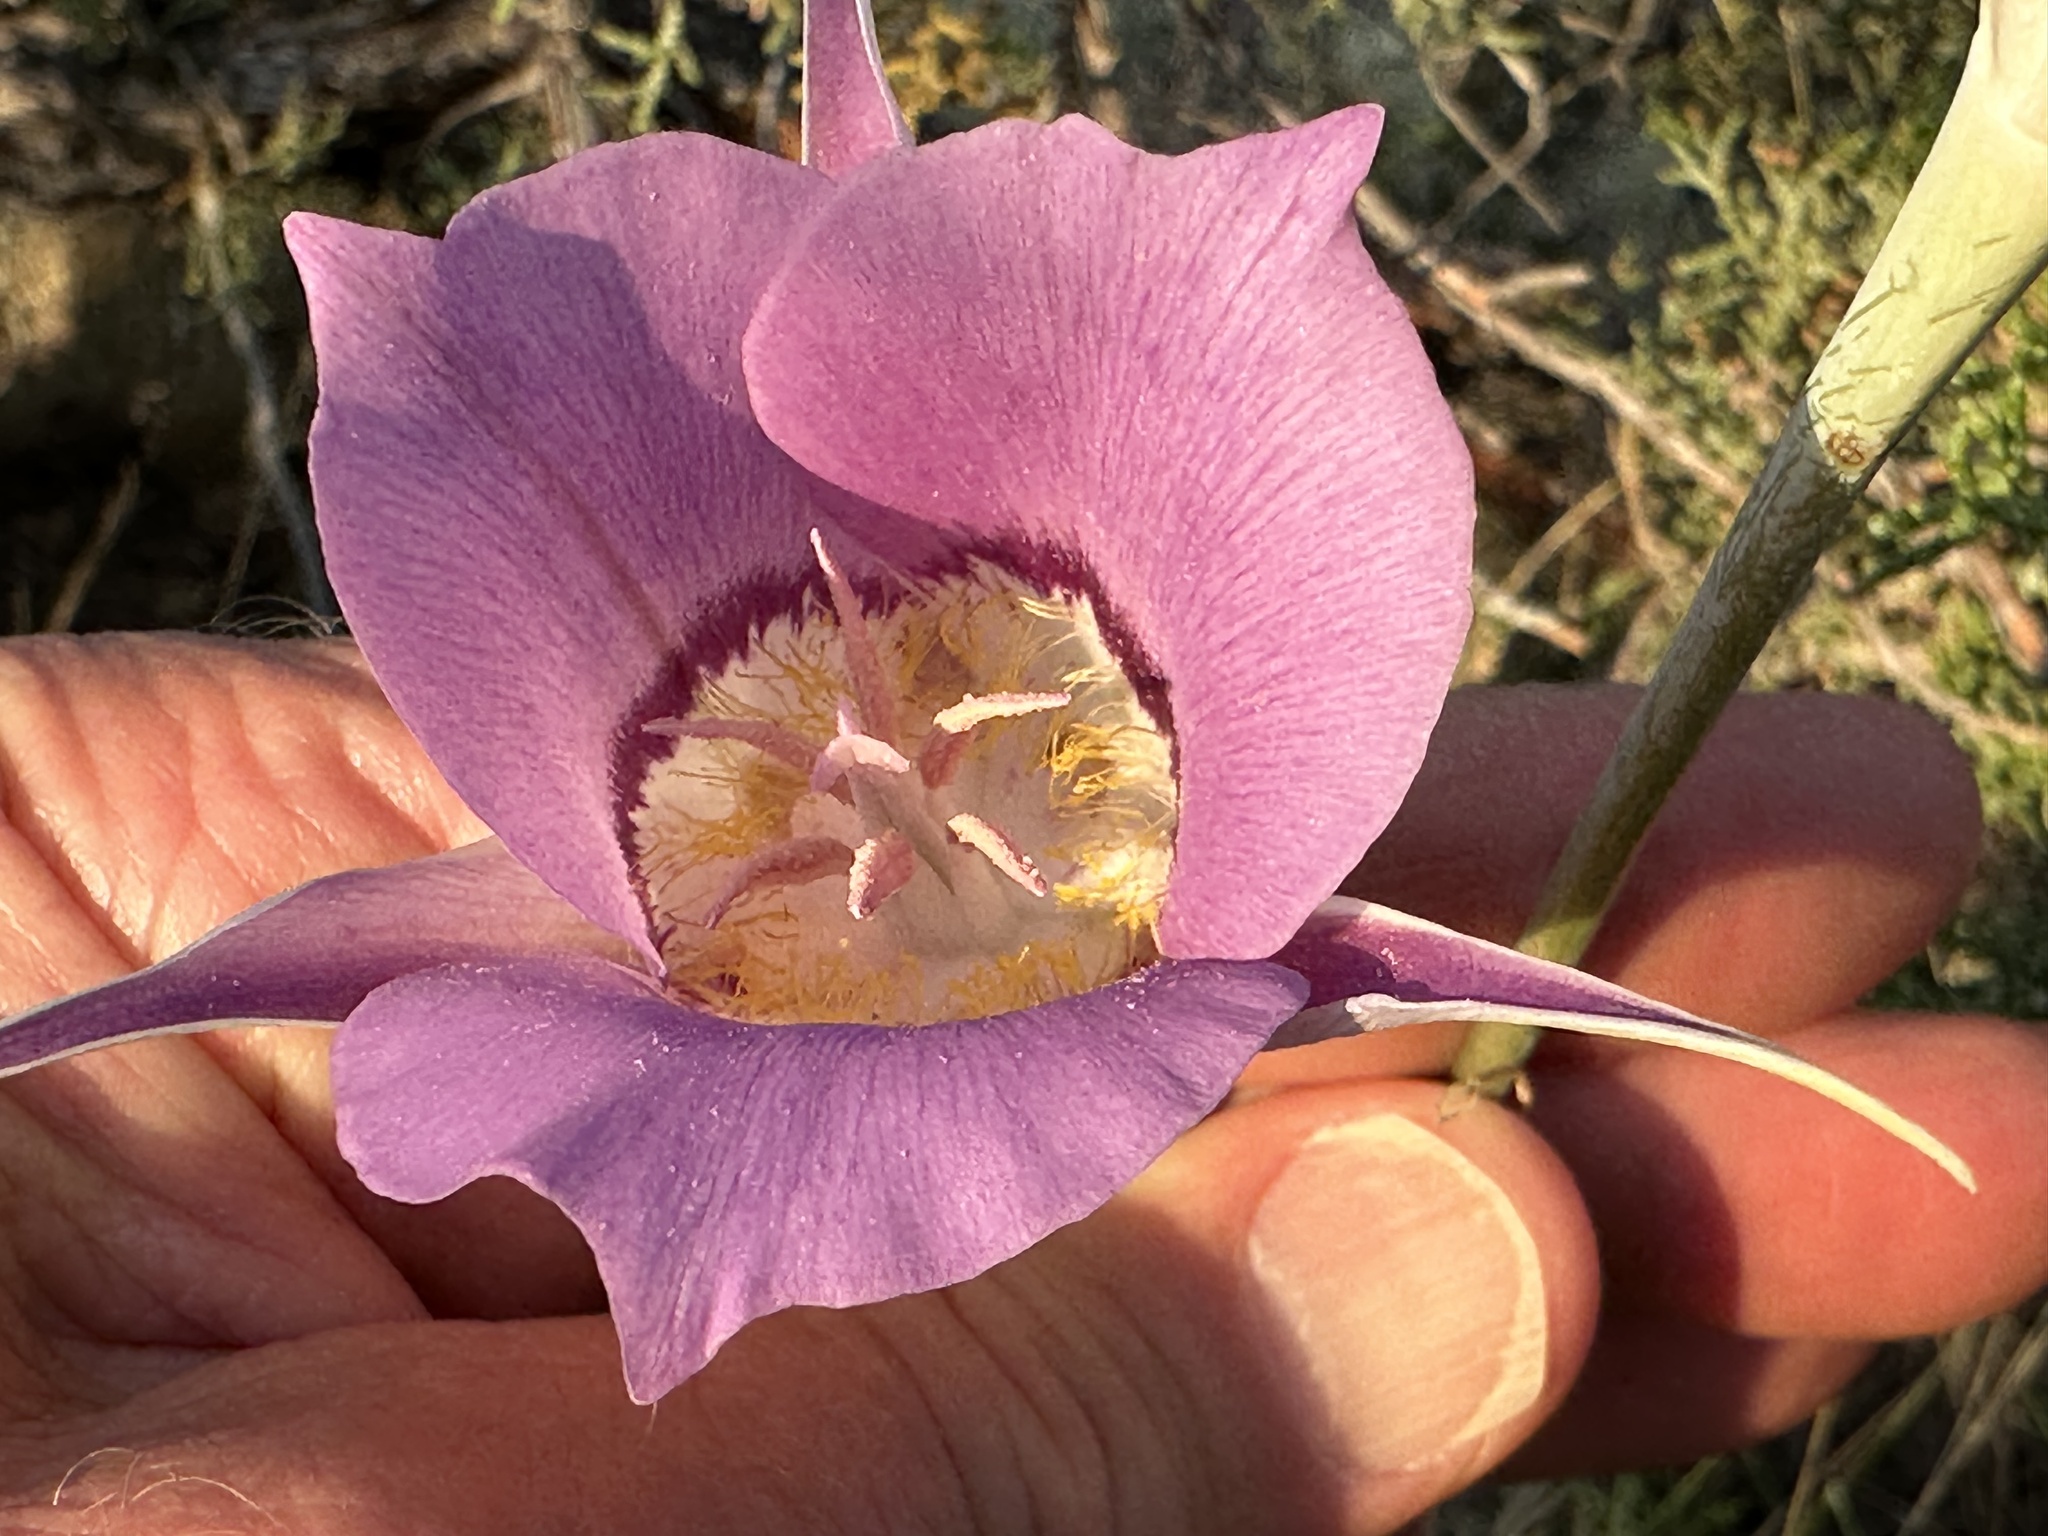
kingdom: Plantae
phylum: Tracheophyta
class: Liliopsida
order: Liliales
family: Liliaceae
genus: Calochortus
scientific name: Calochortus macrocarpus
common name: Green-band mariposa lily
